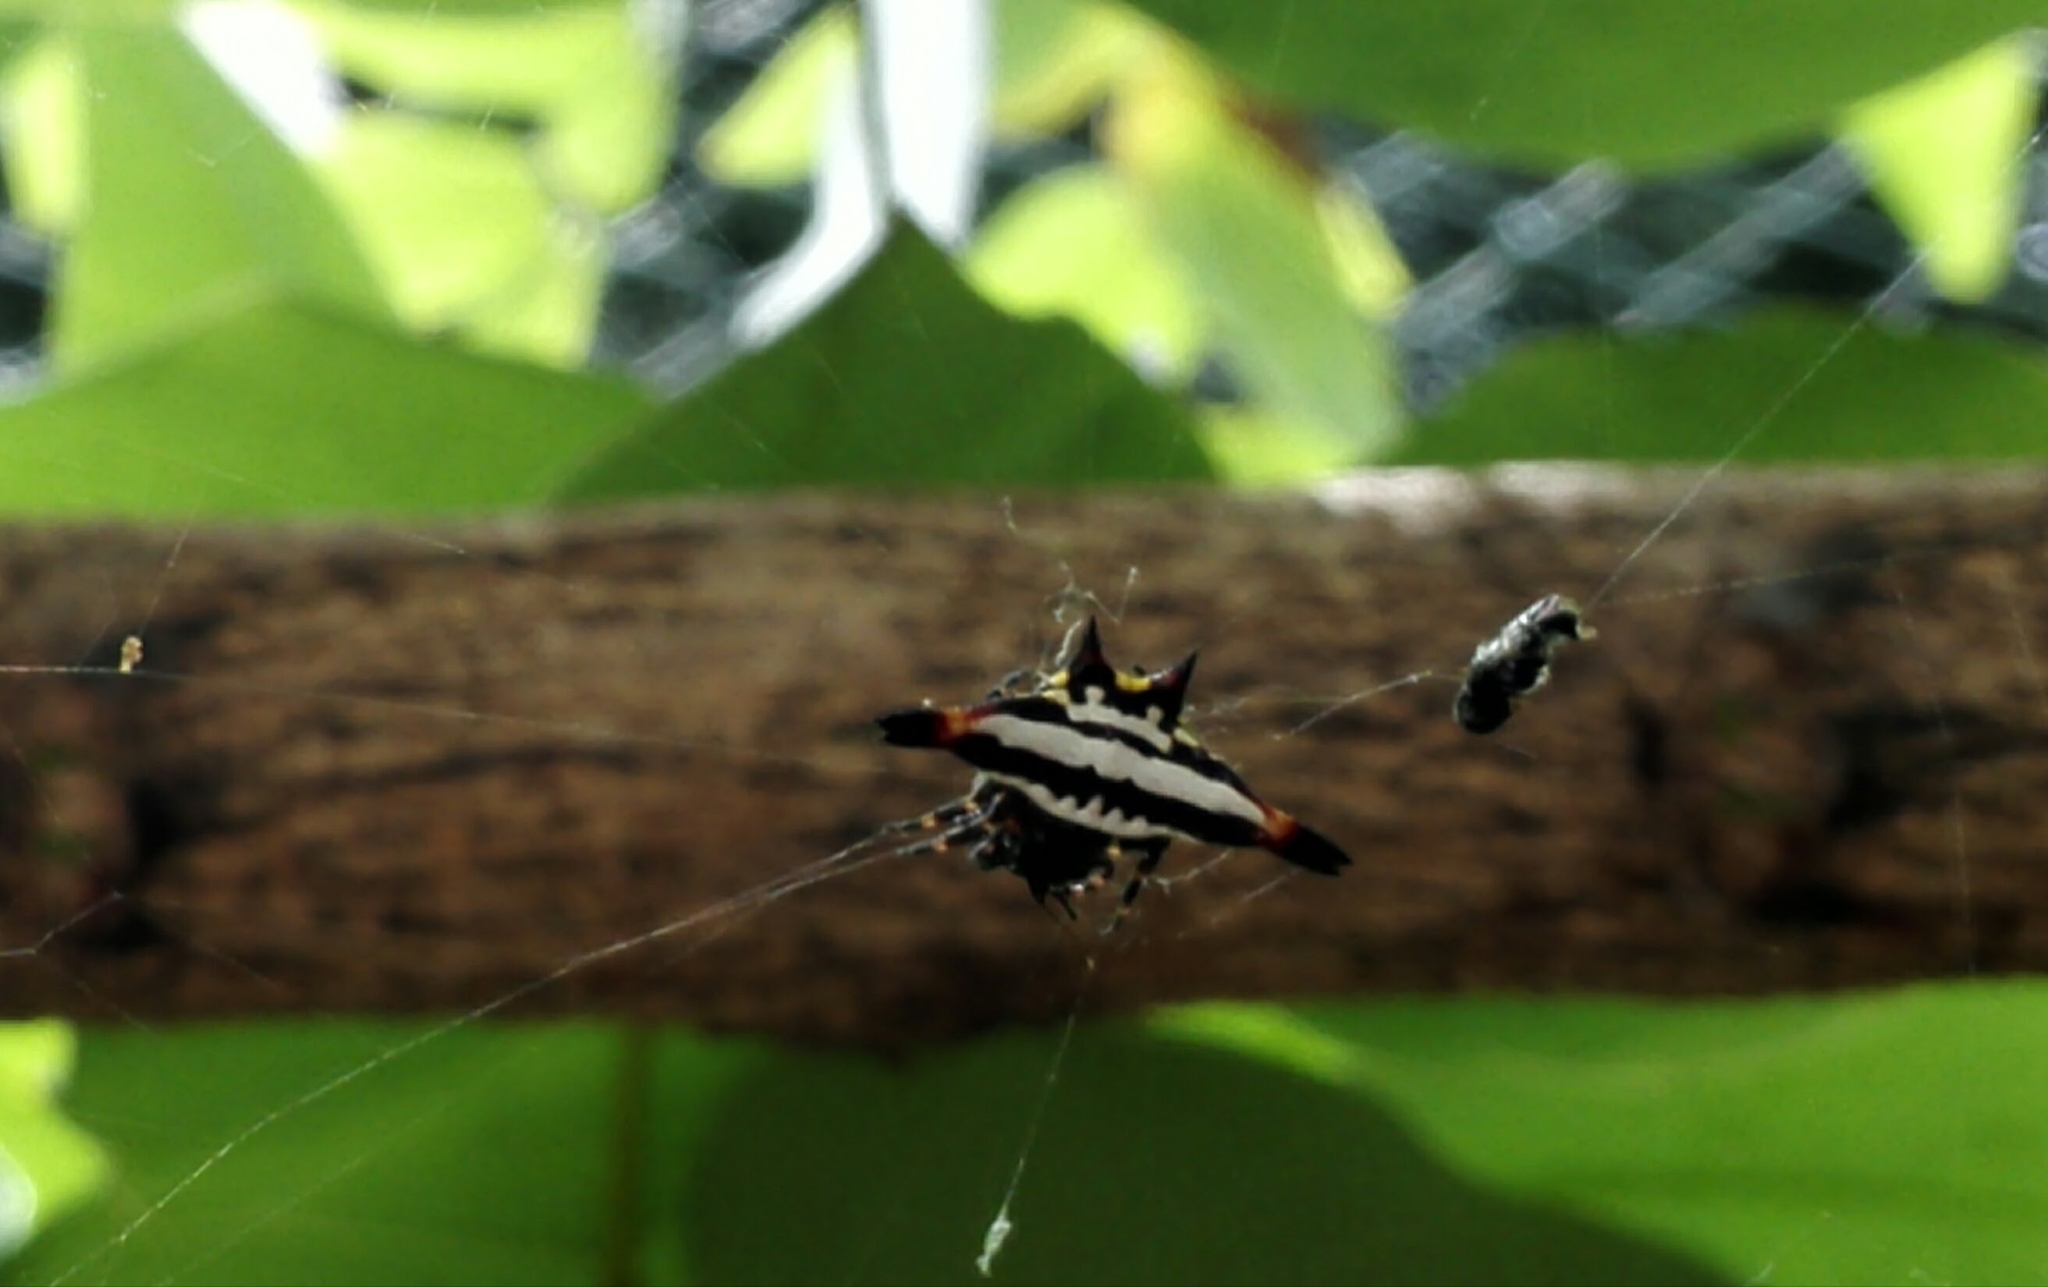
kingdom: Animalia
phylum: Arthropoda
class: Arachnida
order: Araneae
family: Araneidae
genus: Gasteracantha
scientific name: Gasteracantha geminata
